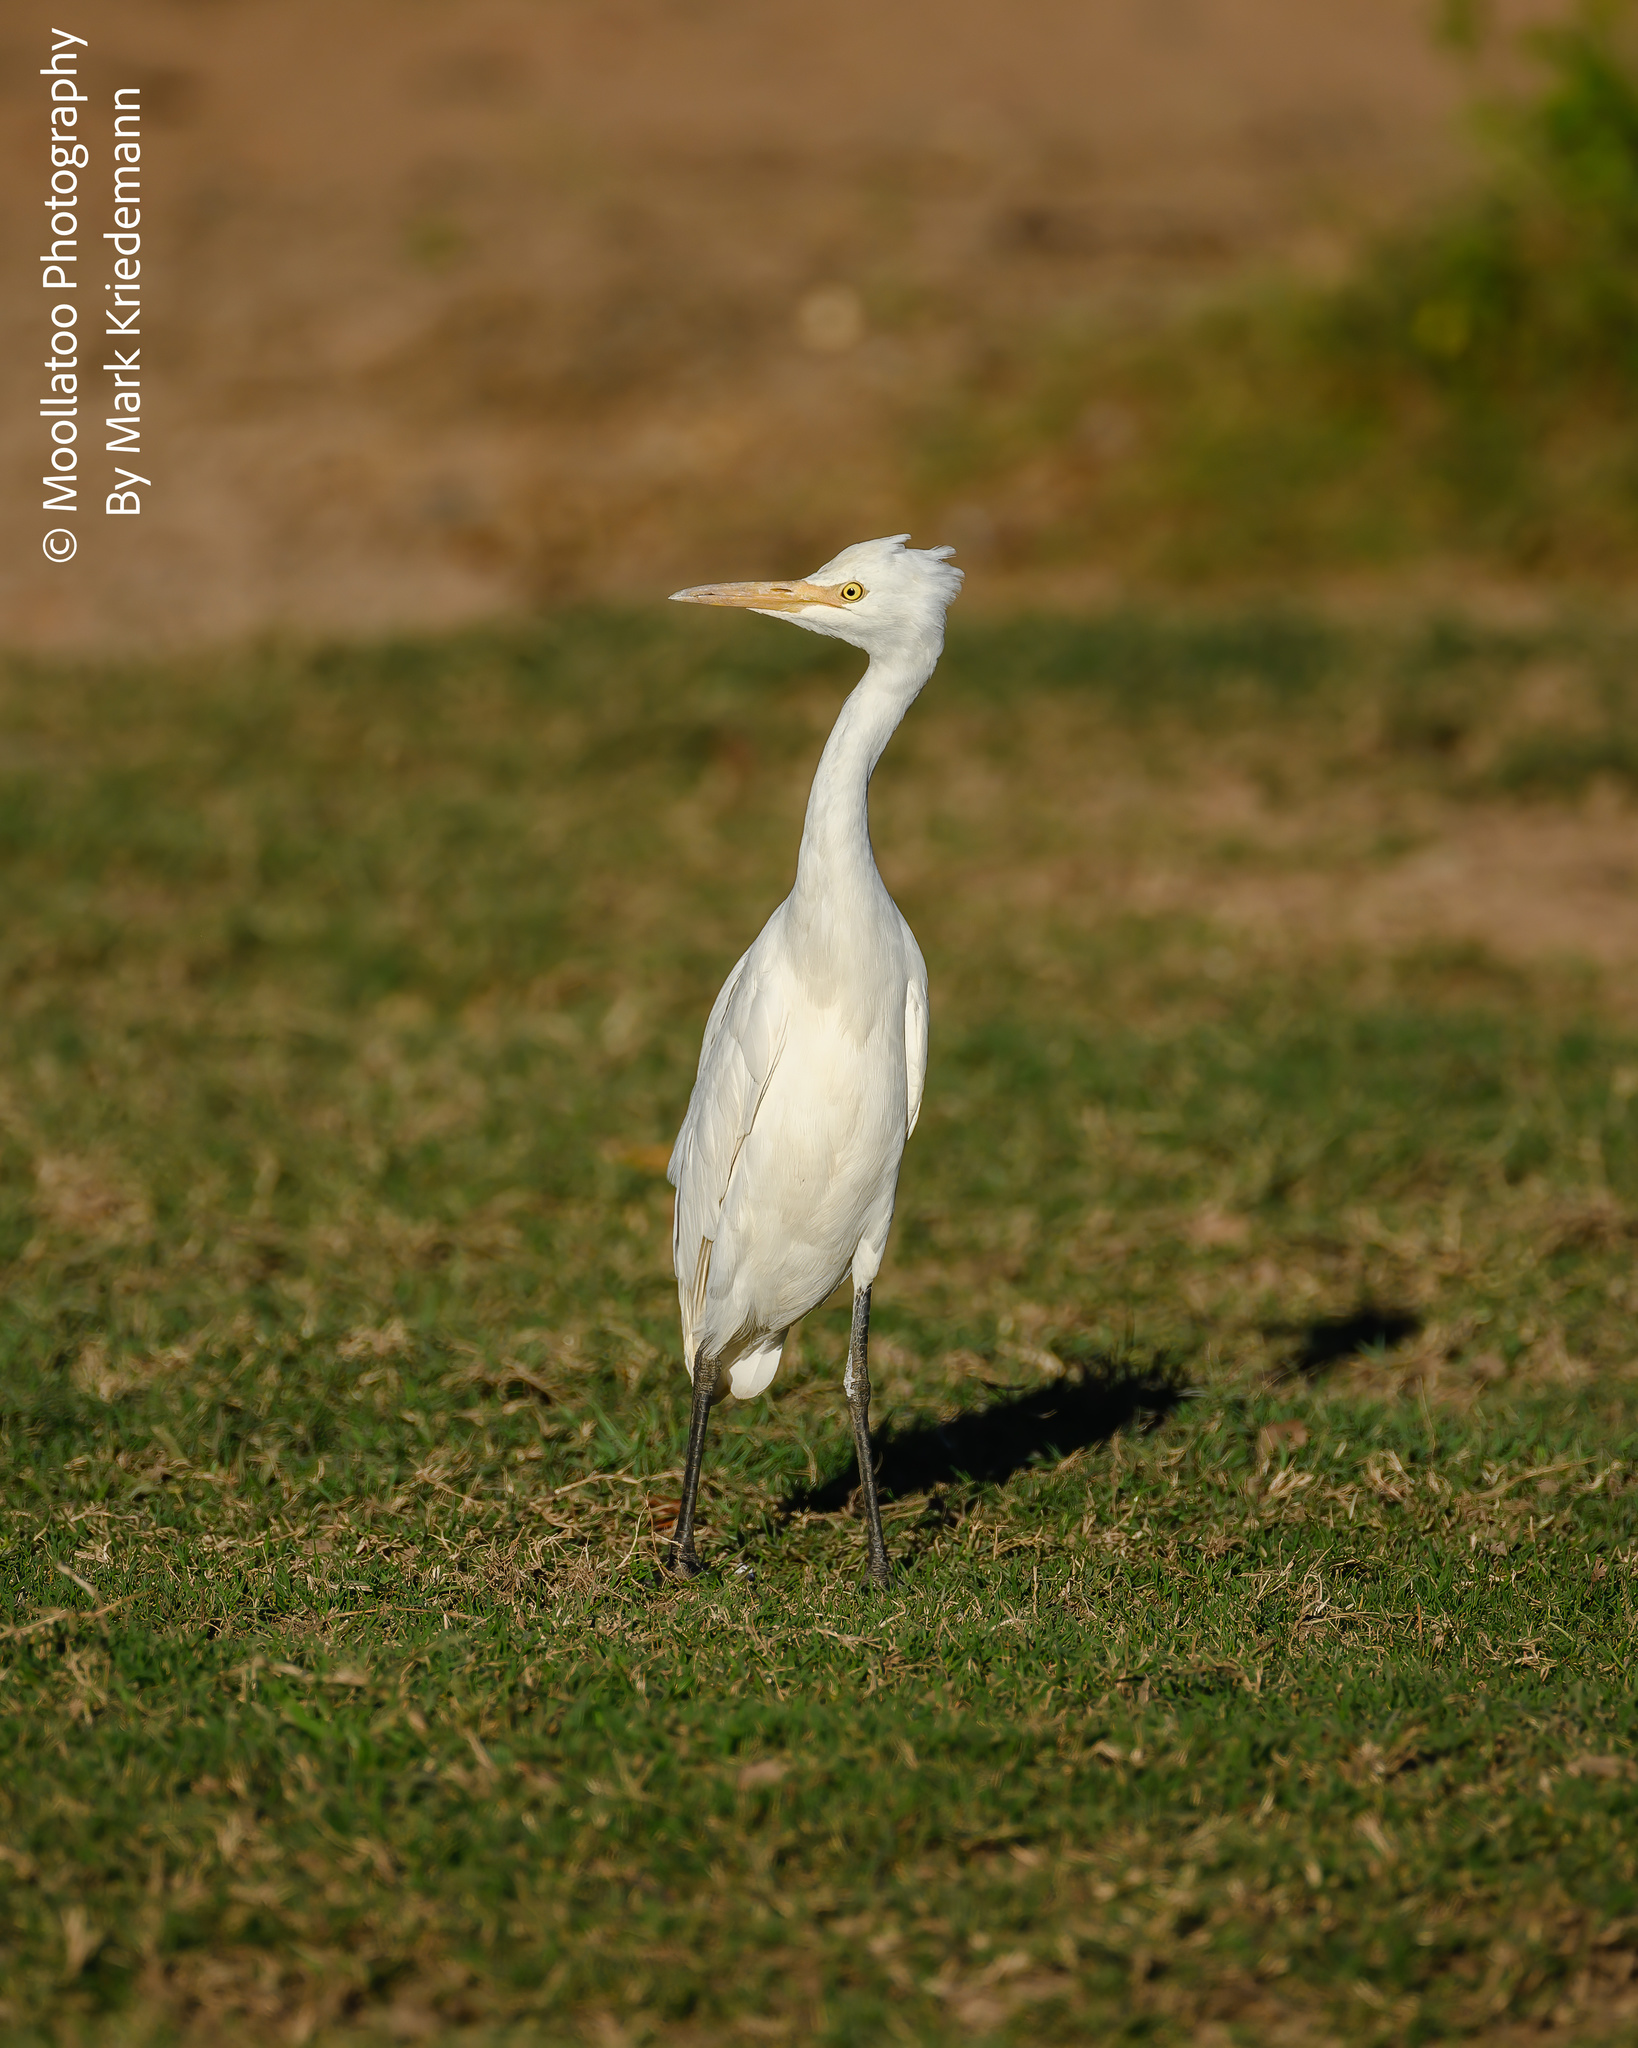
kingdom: Animalia
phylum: Chordata
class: Aves
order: Pelecaniformes
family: Ardeidae
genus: Bubulcus
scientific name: Bubulcus coromandus
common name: Eastern cattle egret
